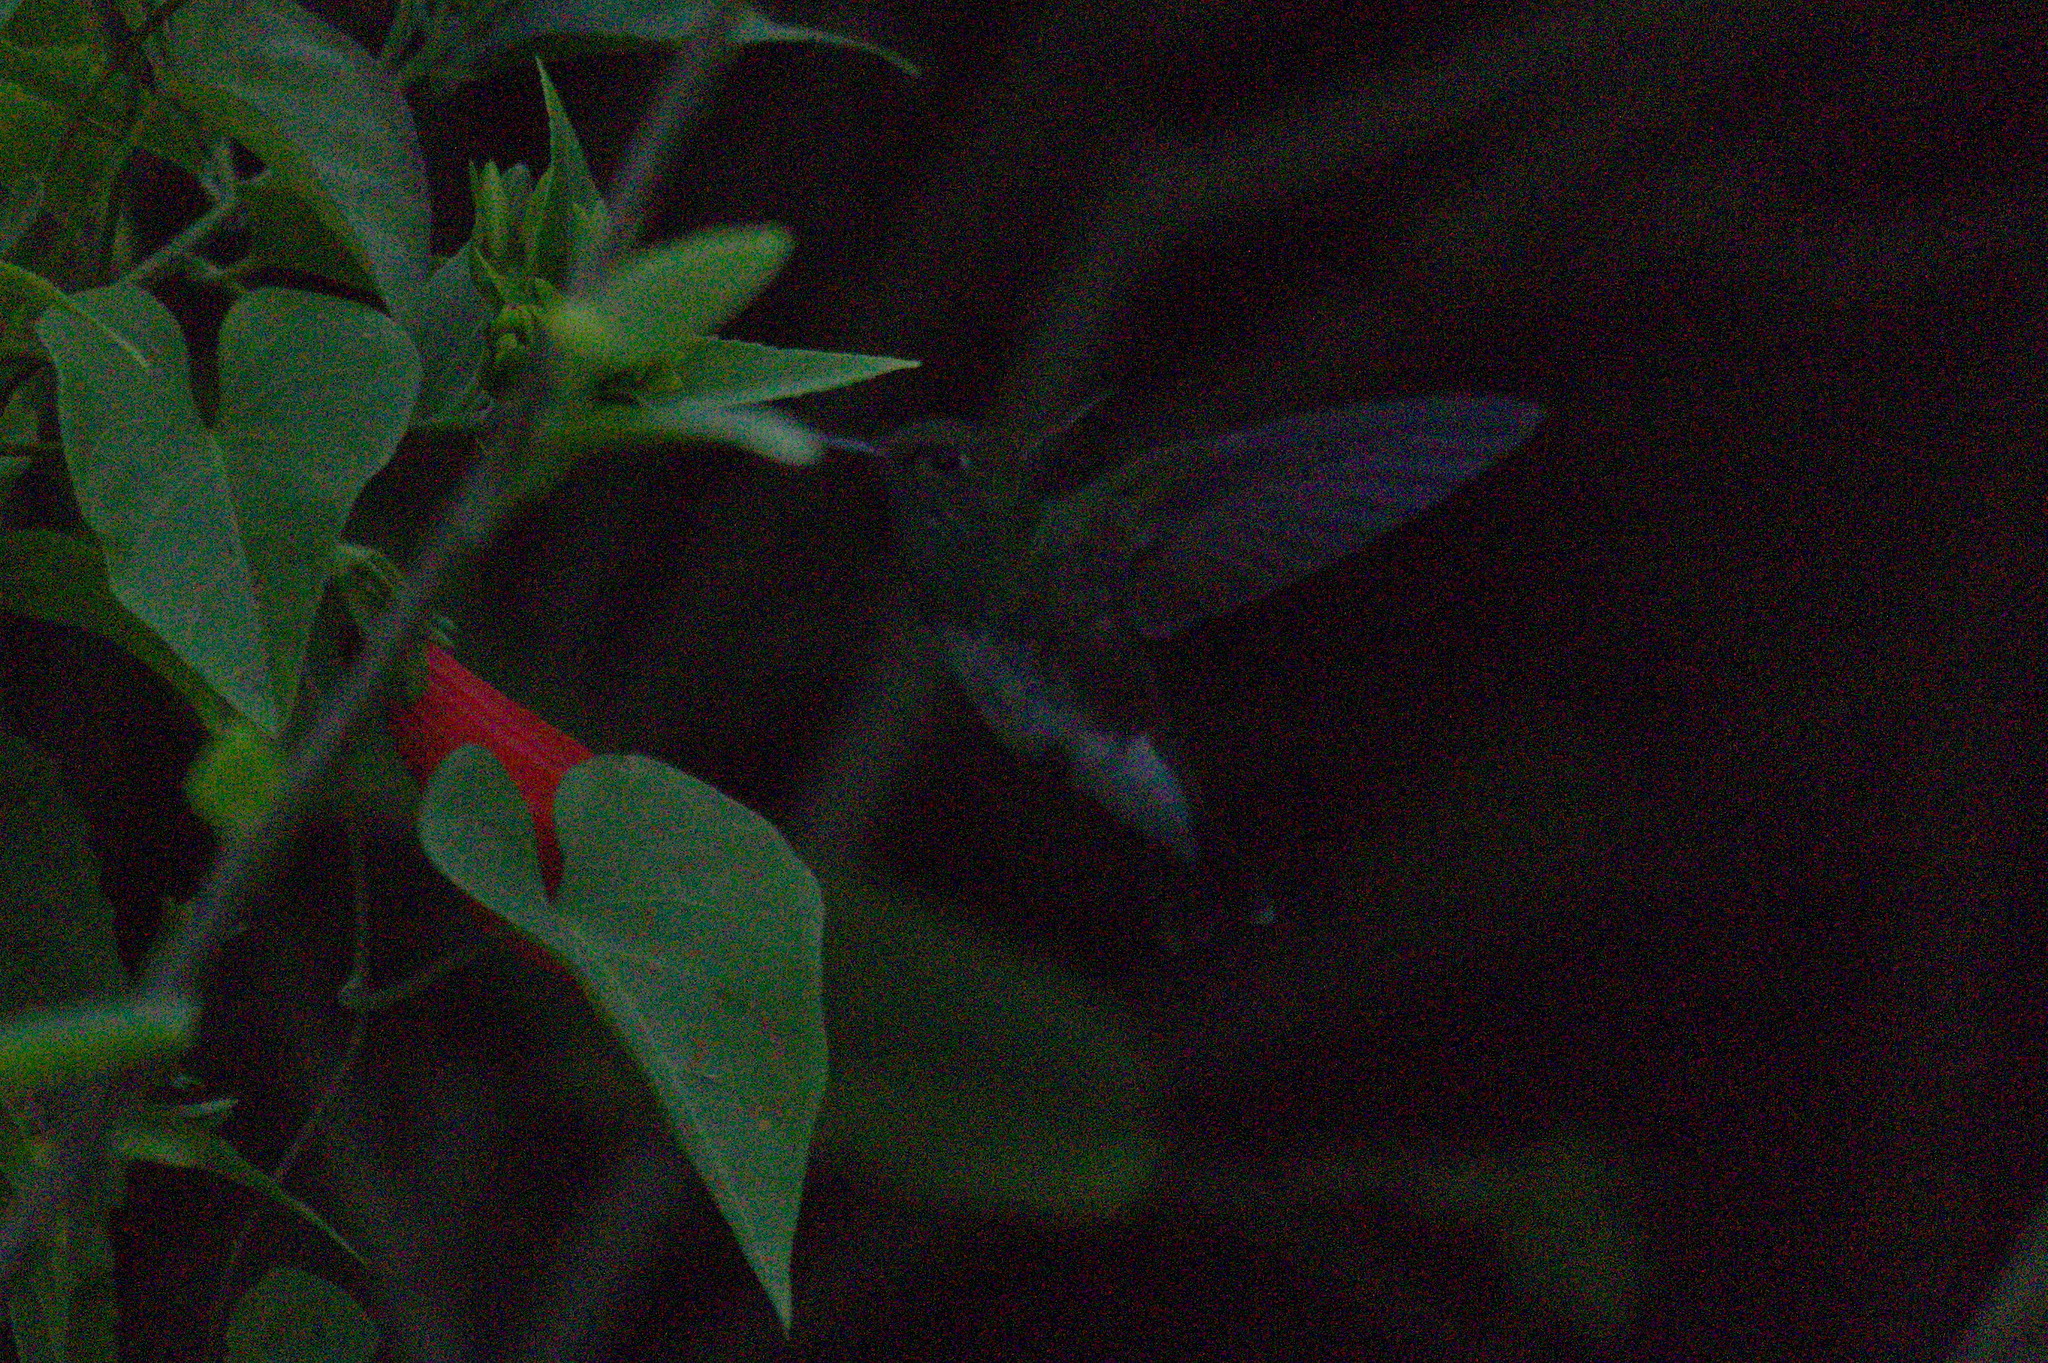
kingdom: Animalia
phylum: Chordata
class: Aves
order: Apodiformes
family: Trochilidae
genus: Chionomesa
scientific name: Chionomesa fimbriata
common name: Glittering-throated emerald
